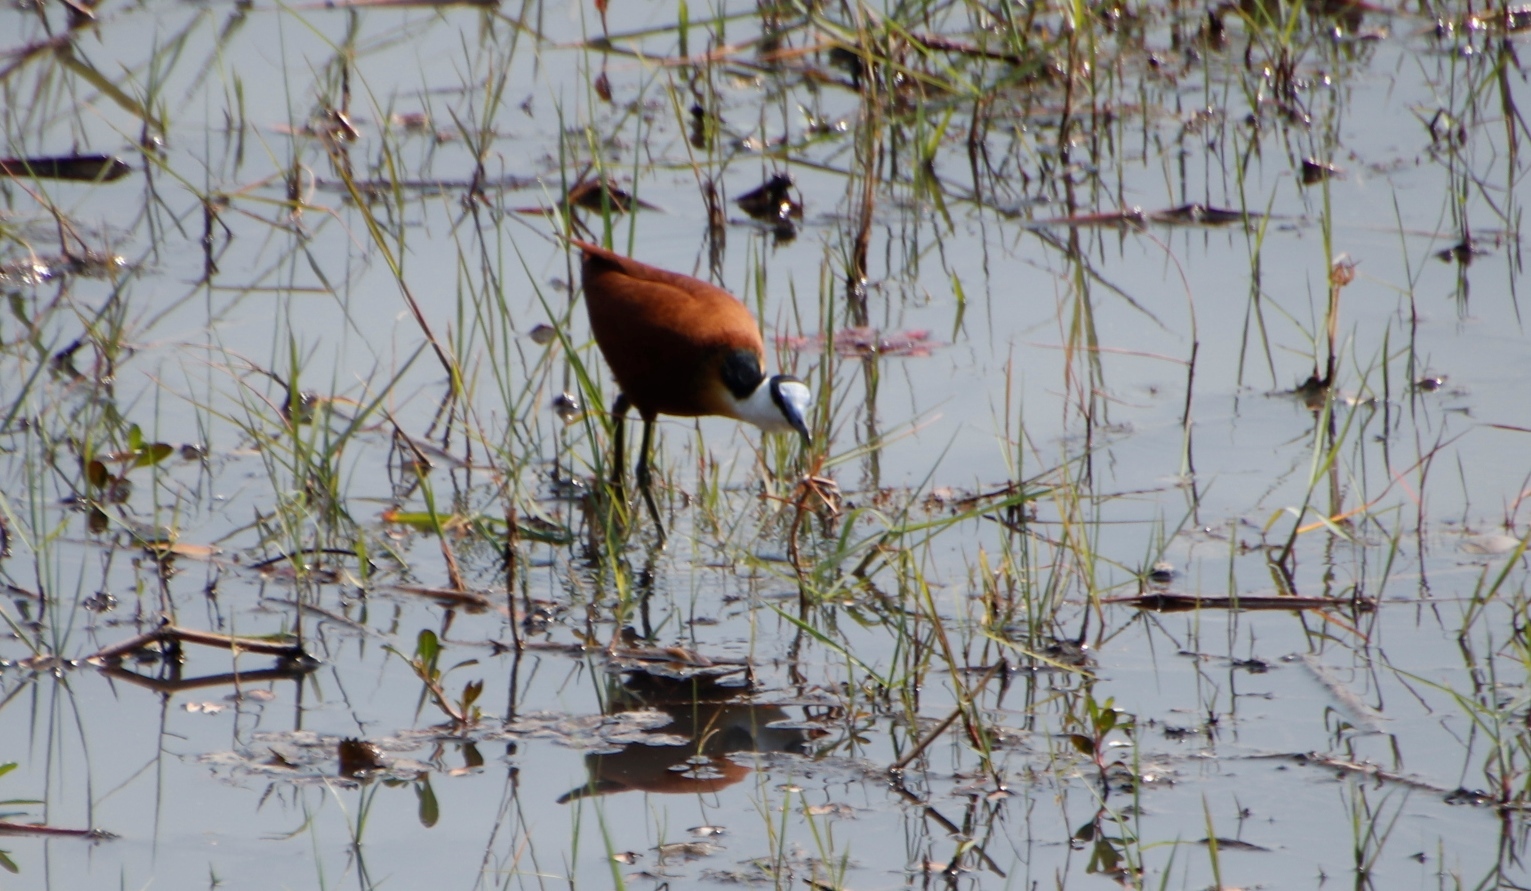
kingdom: Animalia
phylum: Chordata
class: Aves
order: Charadriiformes
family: Jacanidae
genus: Actophilornis
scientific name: Actophilornis africanus
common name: African jacana
